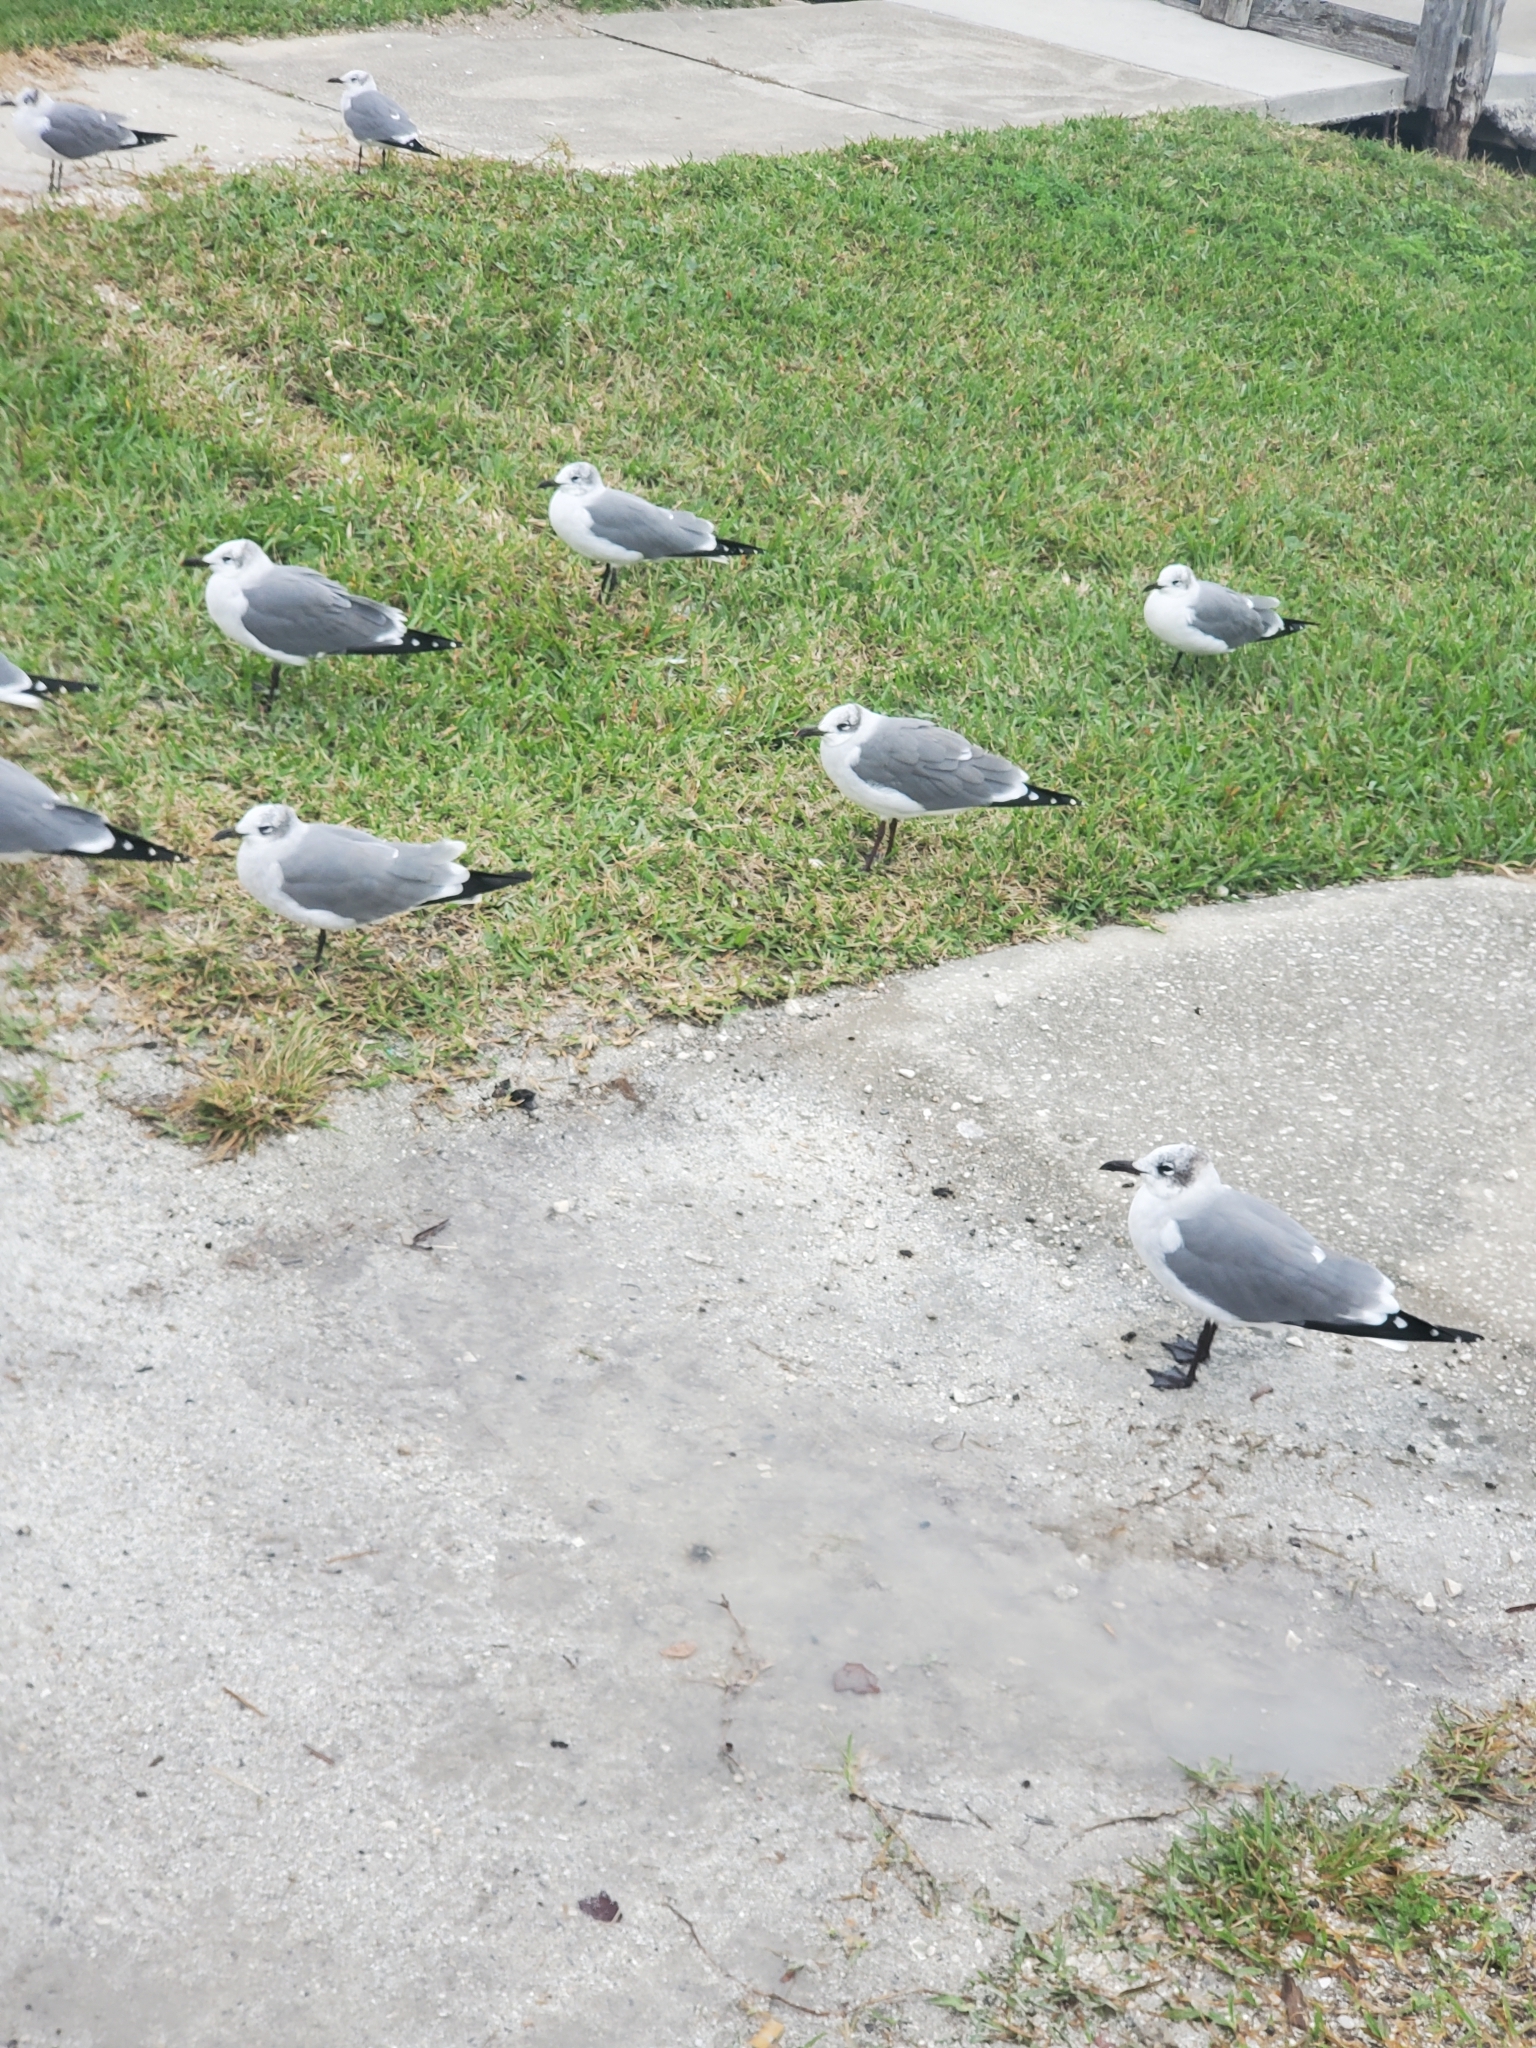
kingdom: Animalia
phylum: Chordata
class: Aves
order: Charadriiformes
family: Laridae
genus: Leucophaeus
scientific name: Leucophaeus atricilla
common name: Laughing gull
